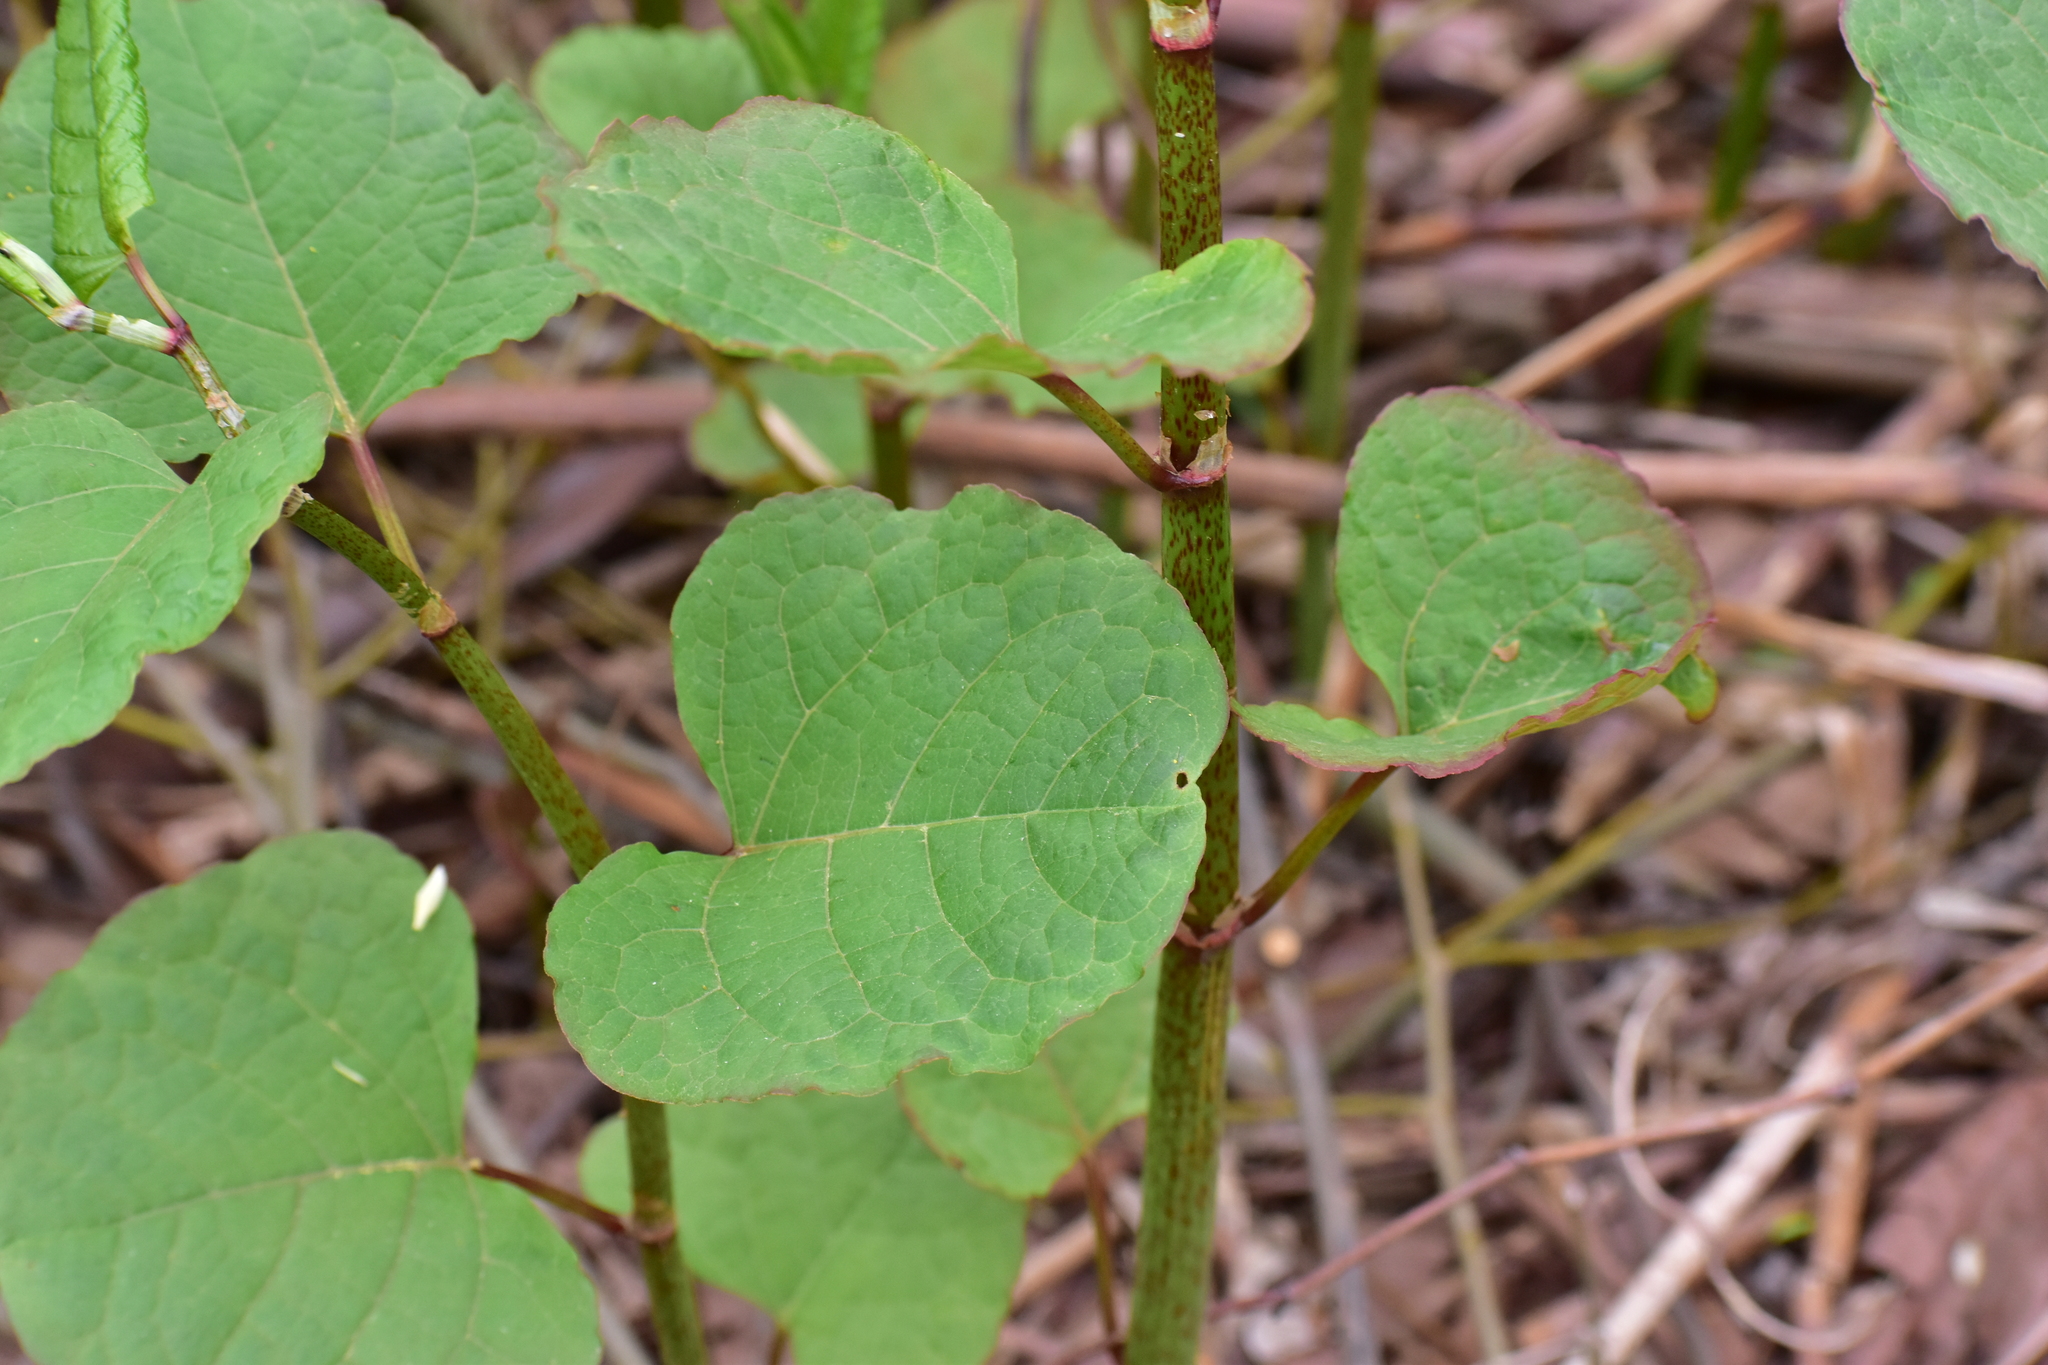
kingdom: Plantae
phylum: Tracheophyta
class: Magnoliopsida
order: Caryophyllales
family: Polygonaceae
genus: Reynoutria
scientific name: Reynoutria bohemica
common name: Bohemian knotweed
